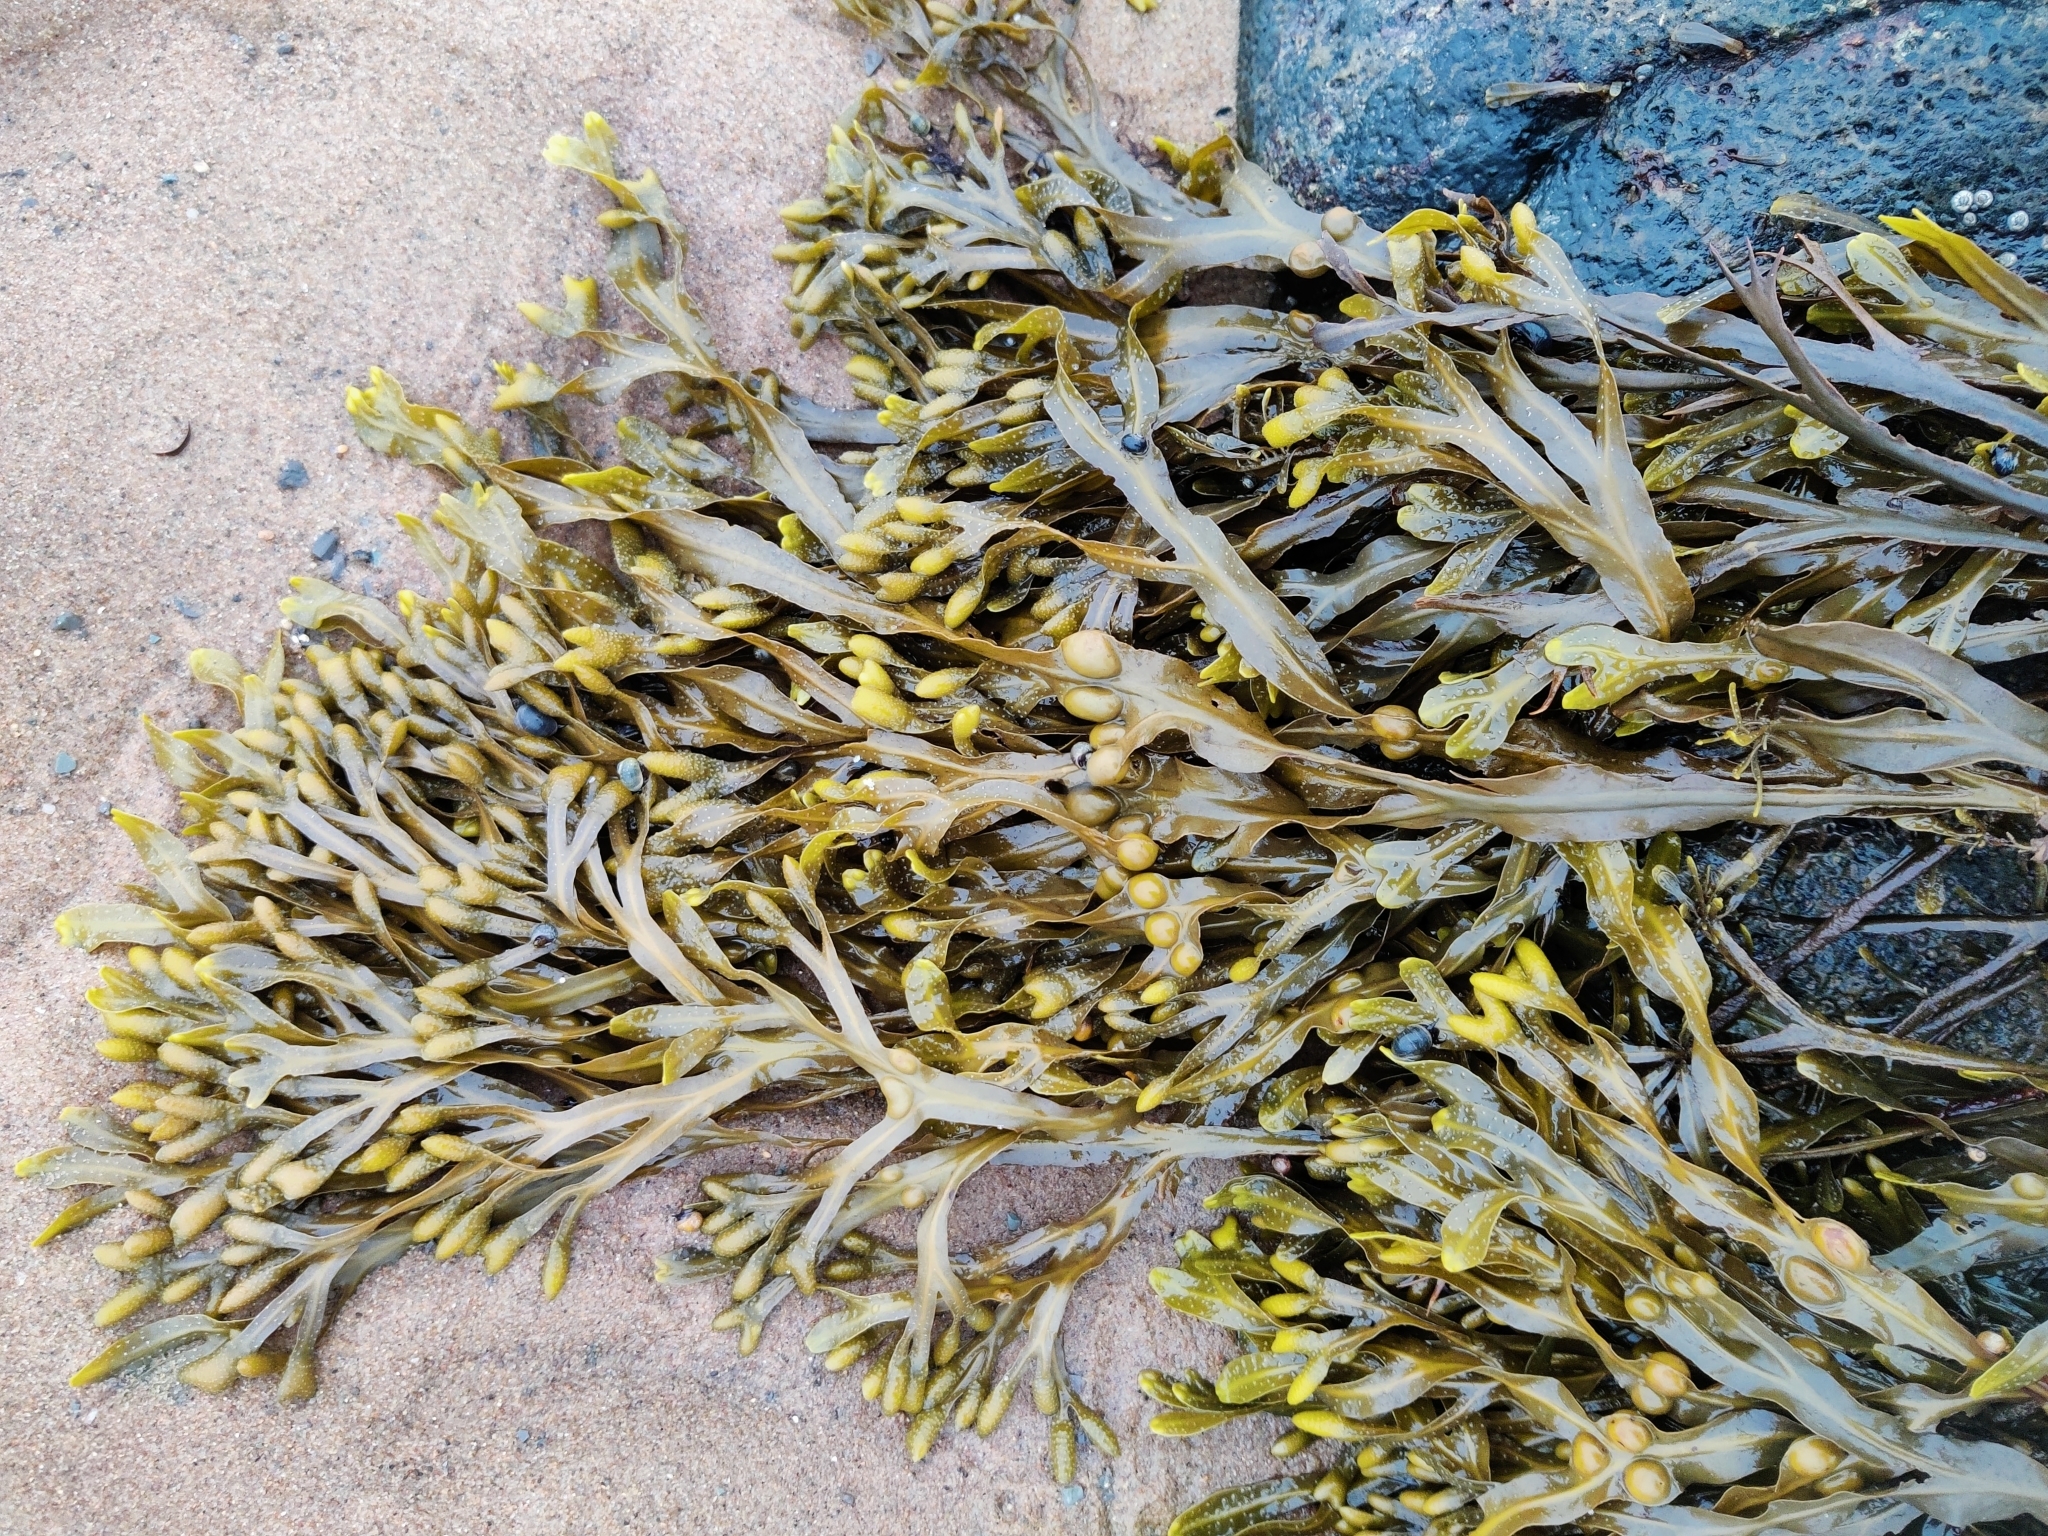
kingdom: Chromista
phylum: Ochrophyta
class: Phaeophyceae
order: Fucales
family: Fucaceae
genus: Fucus
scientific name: Fucus vesiculosus
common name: Bladder wrack
